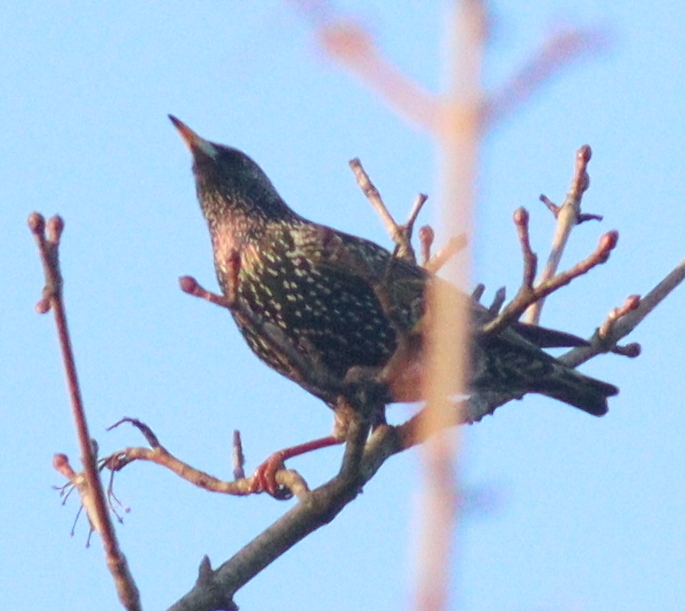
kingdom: Animalia
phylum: Chordata
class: Aves
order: Passeriformes
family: Sturnidae
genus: Sturnus
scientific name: Sturnus vulgaris
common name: Common starling
